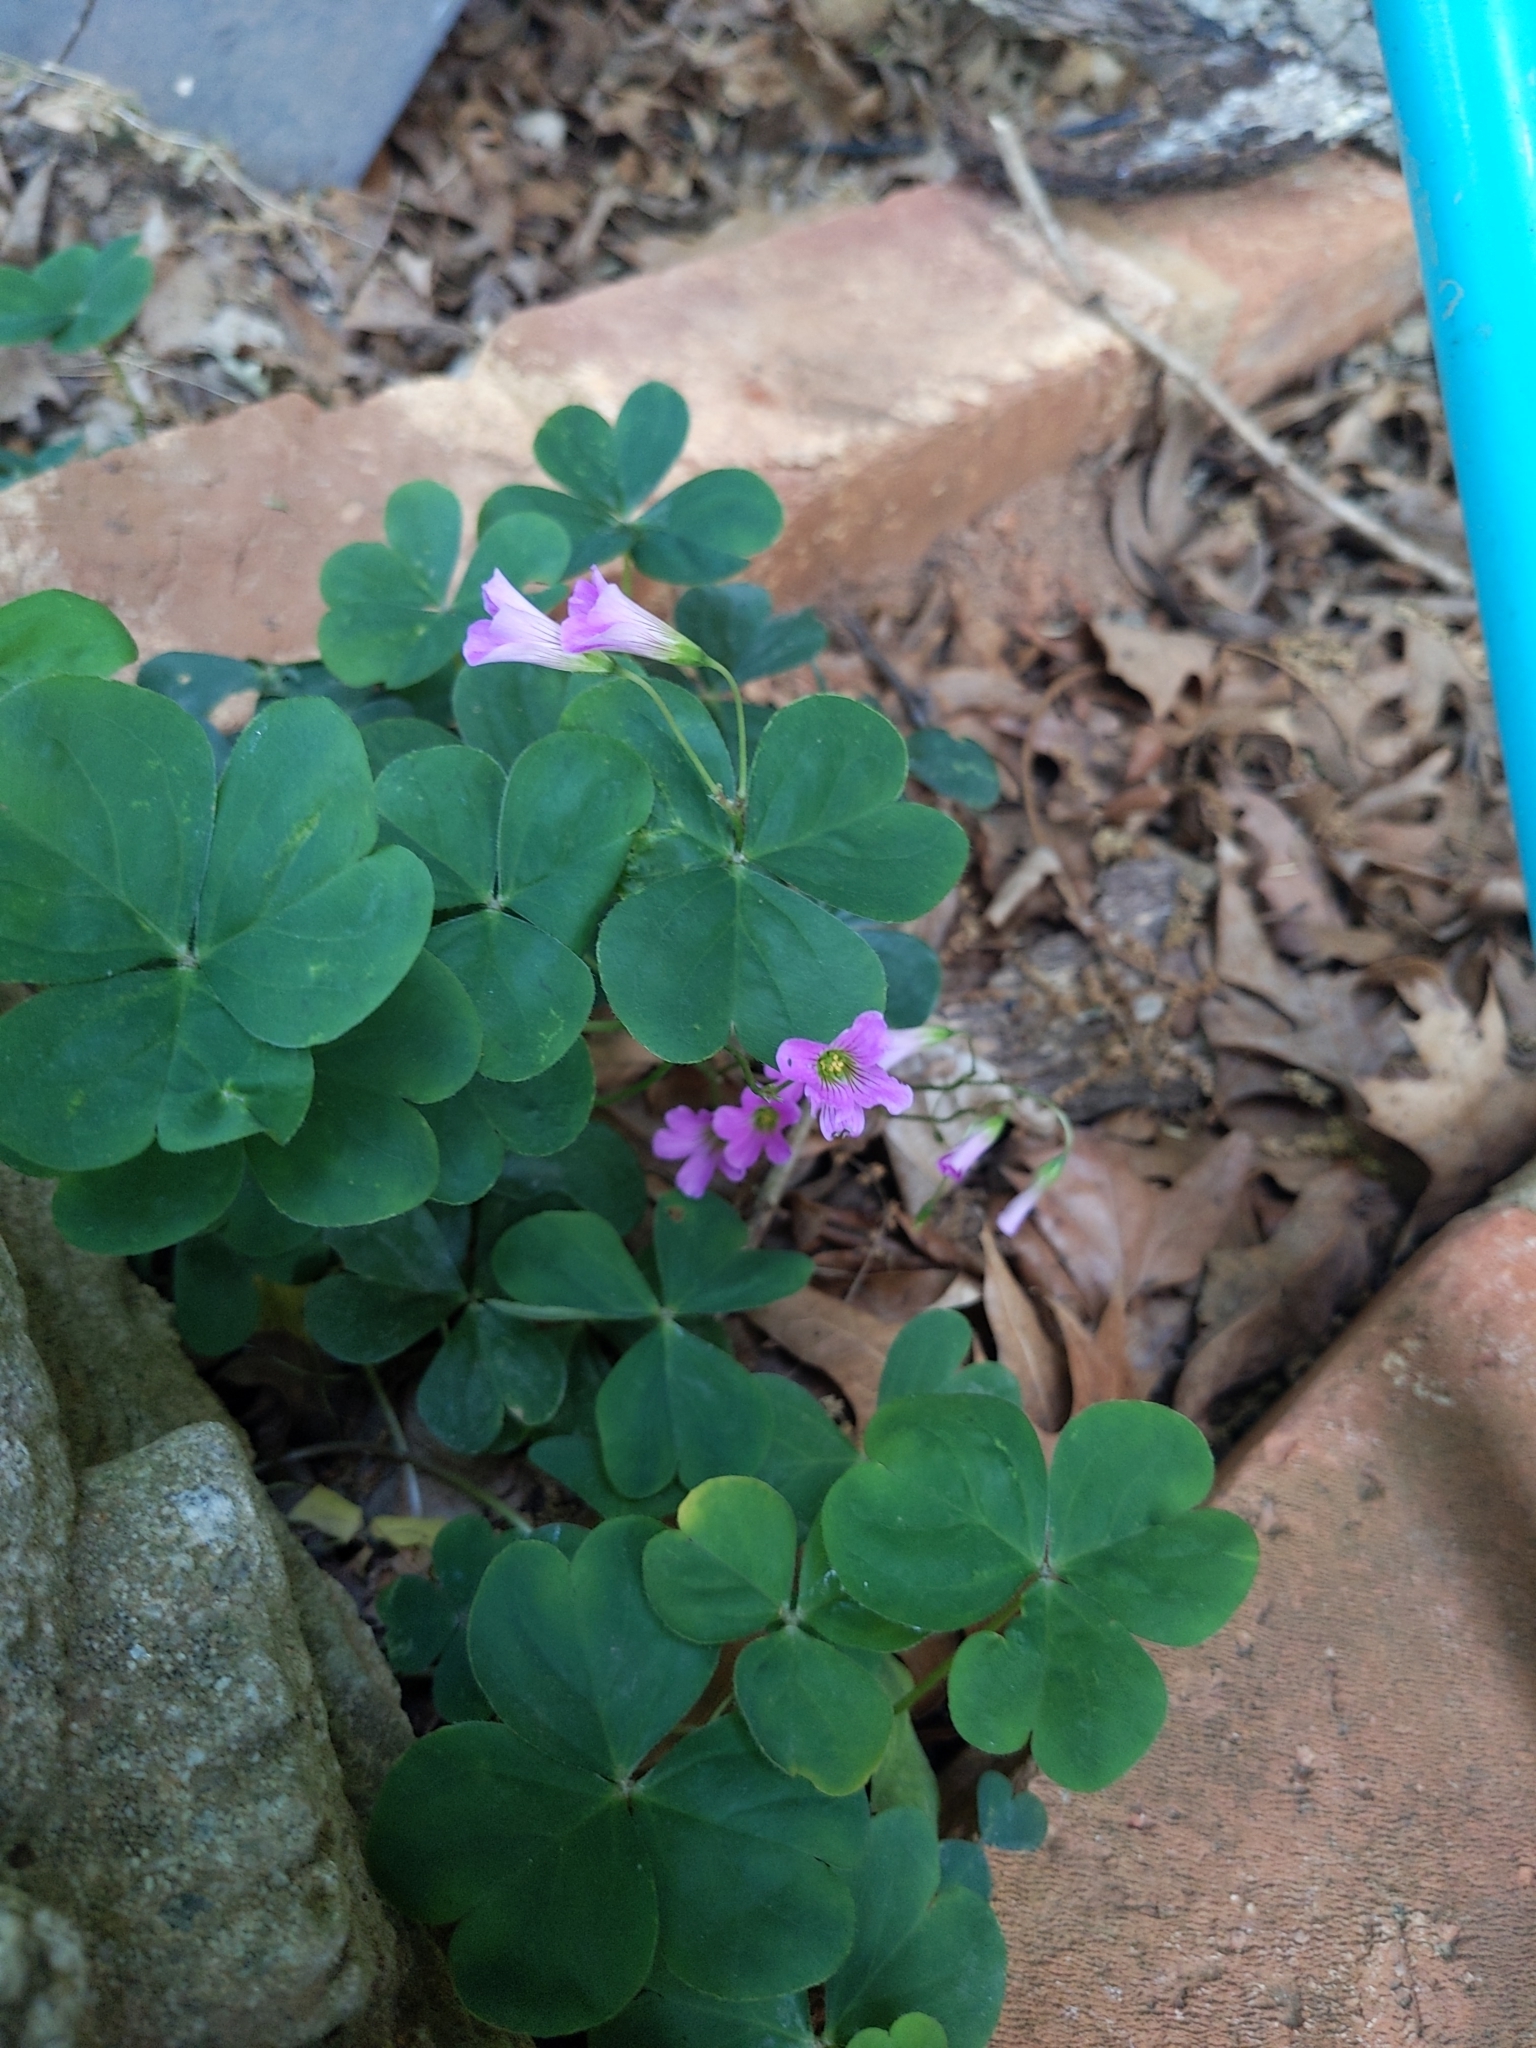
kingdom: Plantae
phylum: Tracheophyta
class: Magnoliopsida
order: Oxalidales
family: Oxalidaceae
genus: Oxalis
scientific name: Oxalis debilis
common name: Large-flowered pink-sorrel
